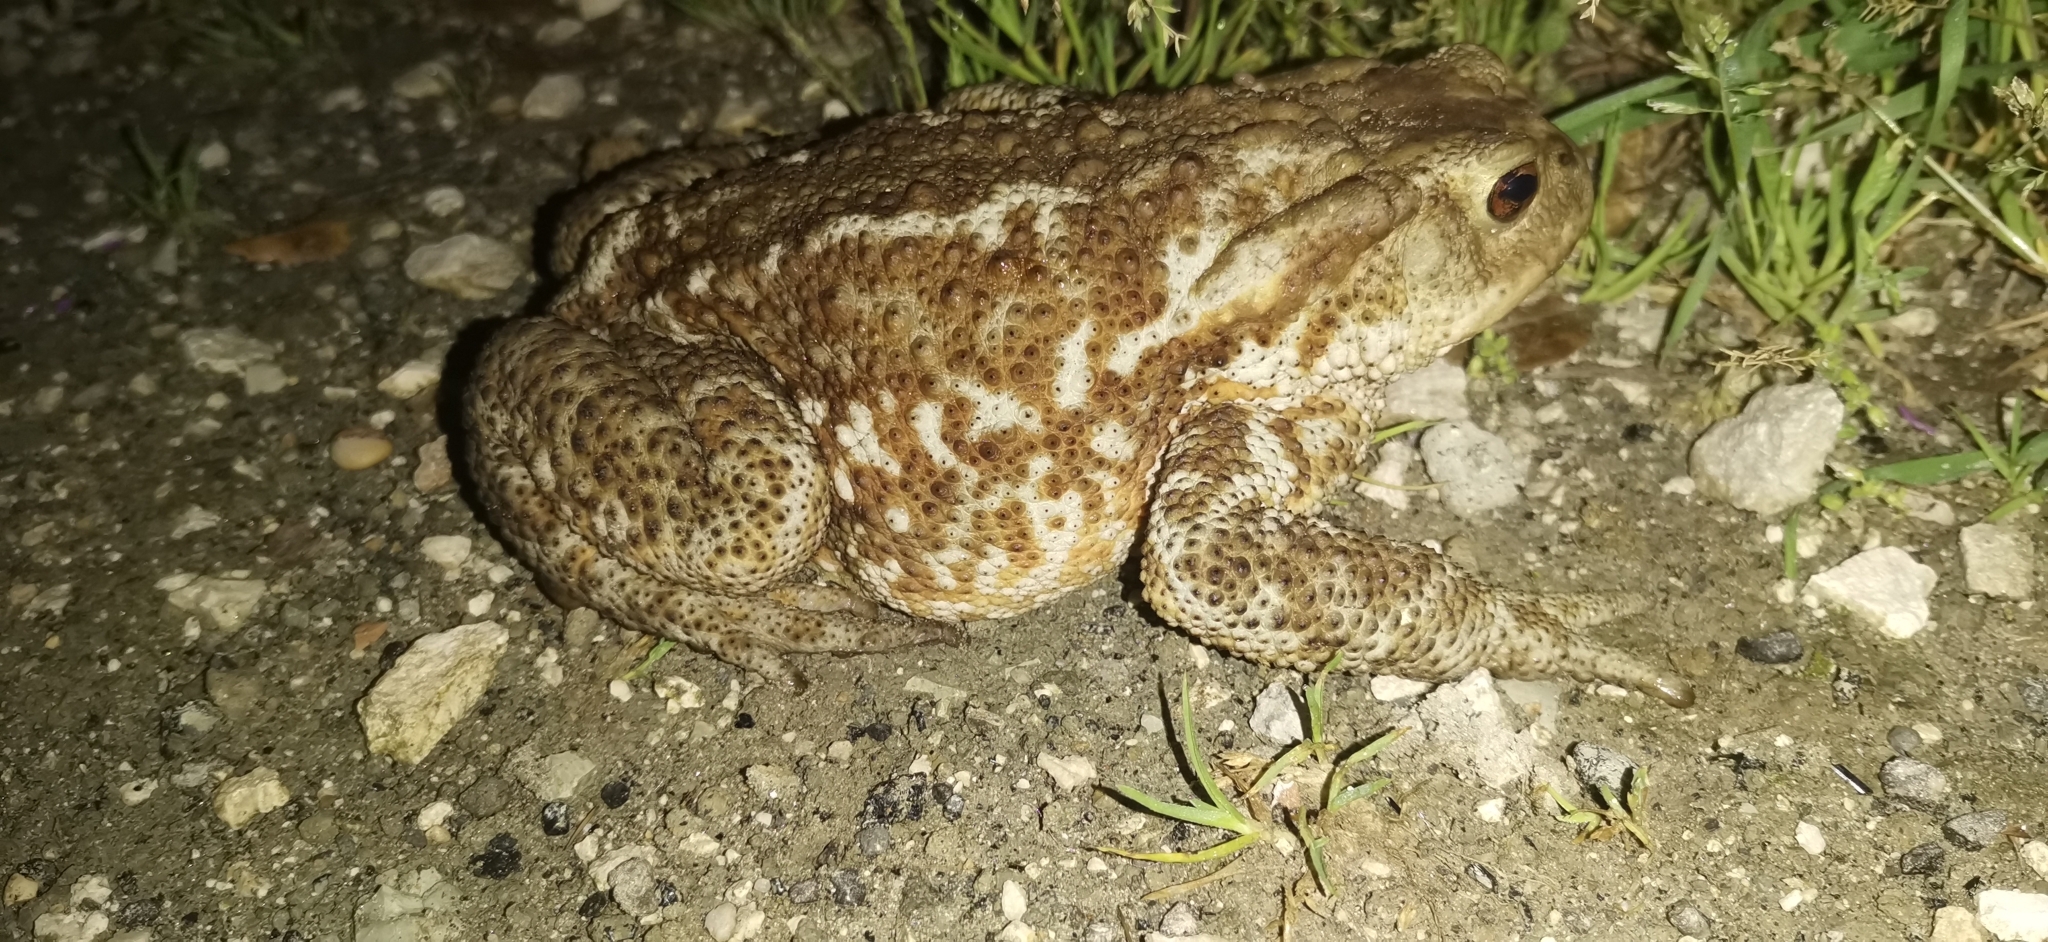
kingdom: Animalia
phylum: Chordata
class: Amphibia
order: Anura
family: Bufonidae
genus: Bufo
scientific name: Bufo bufo
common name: Common toad
